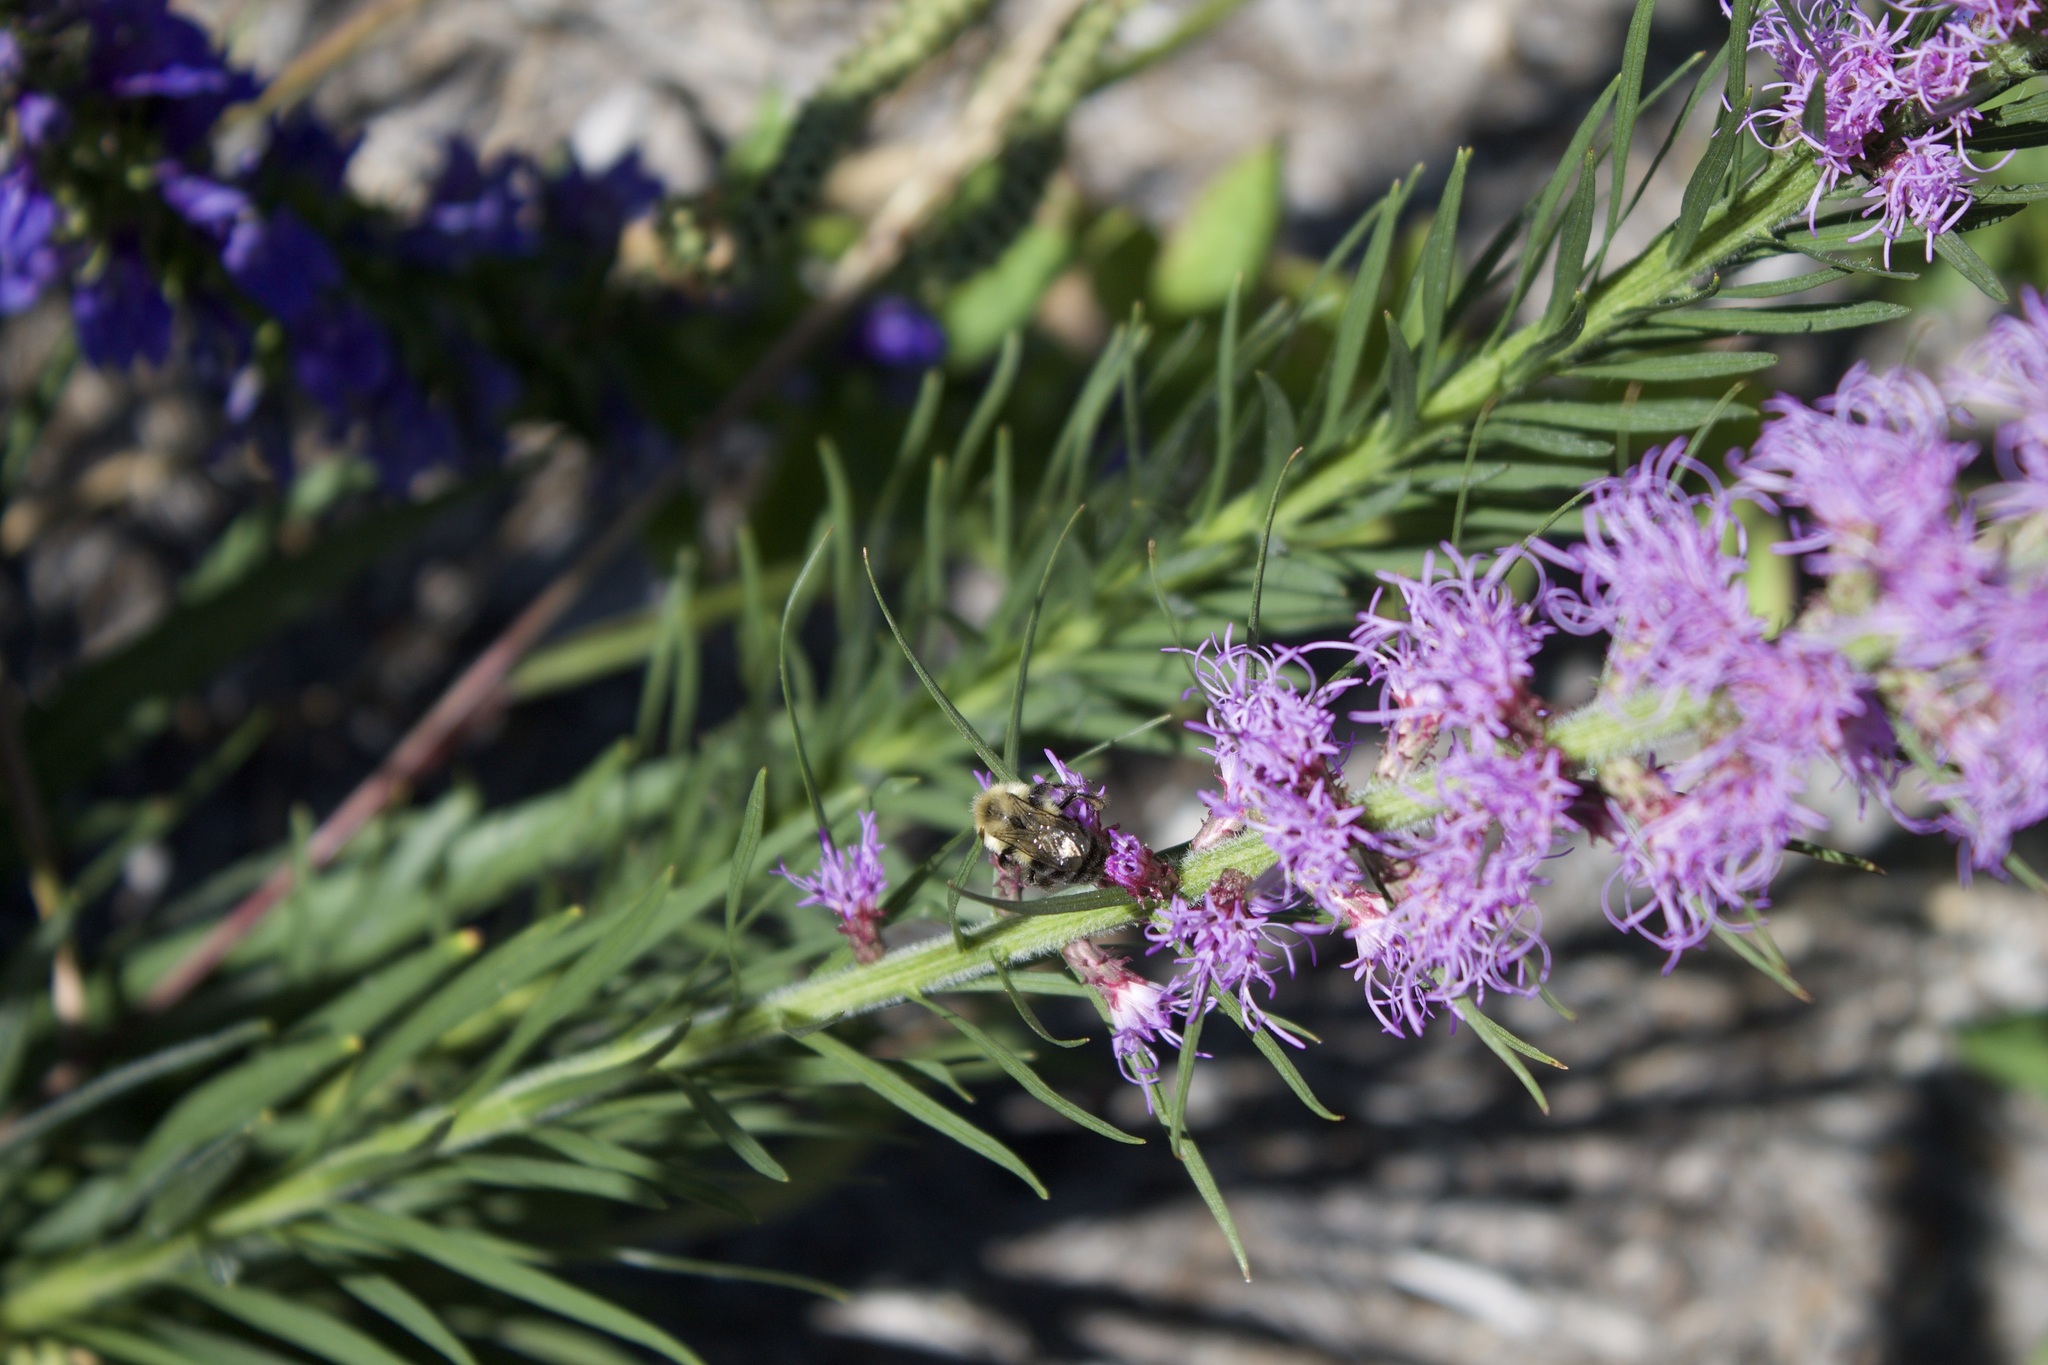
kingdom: Animalia
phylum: Arthropoda
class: Insecta
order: Hymenoptera
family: Apidae
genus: Bombus
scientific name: Bombus impatiens
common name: Common eastern bumble bee
